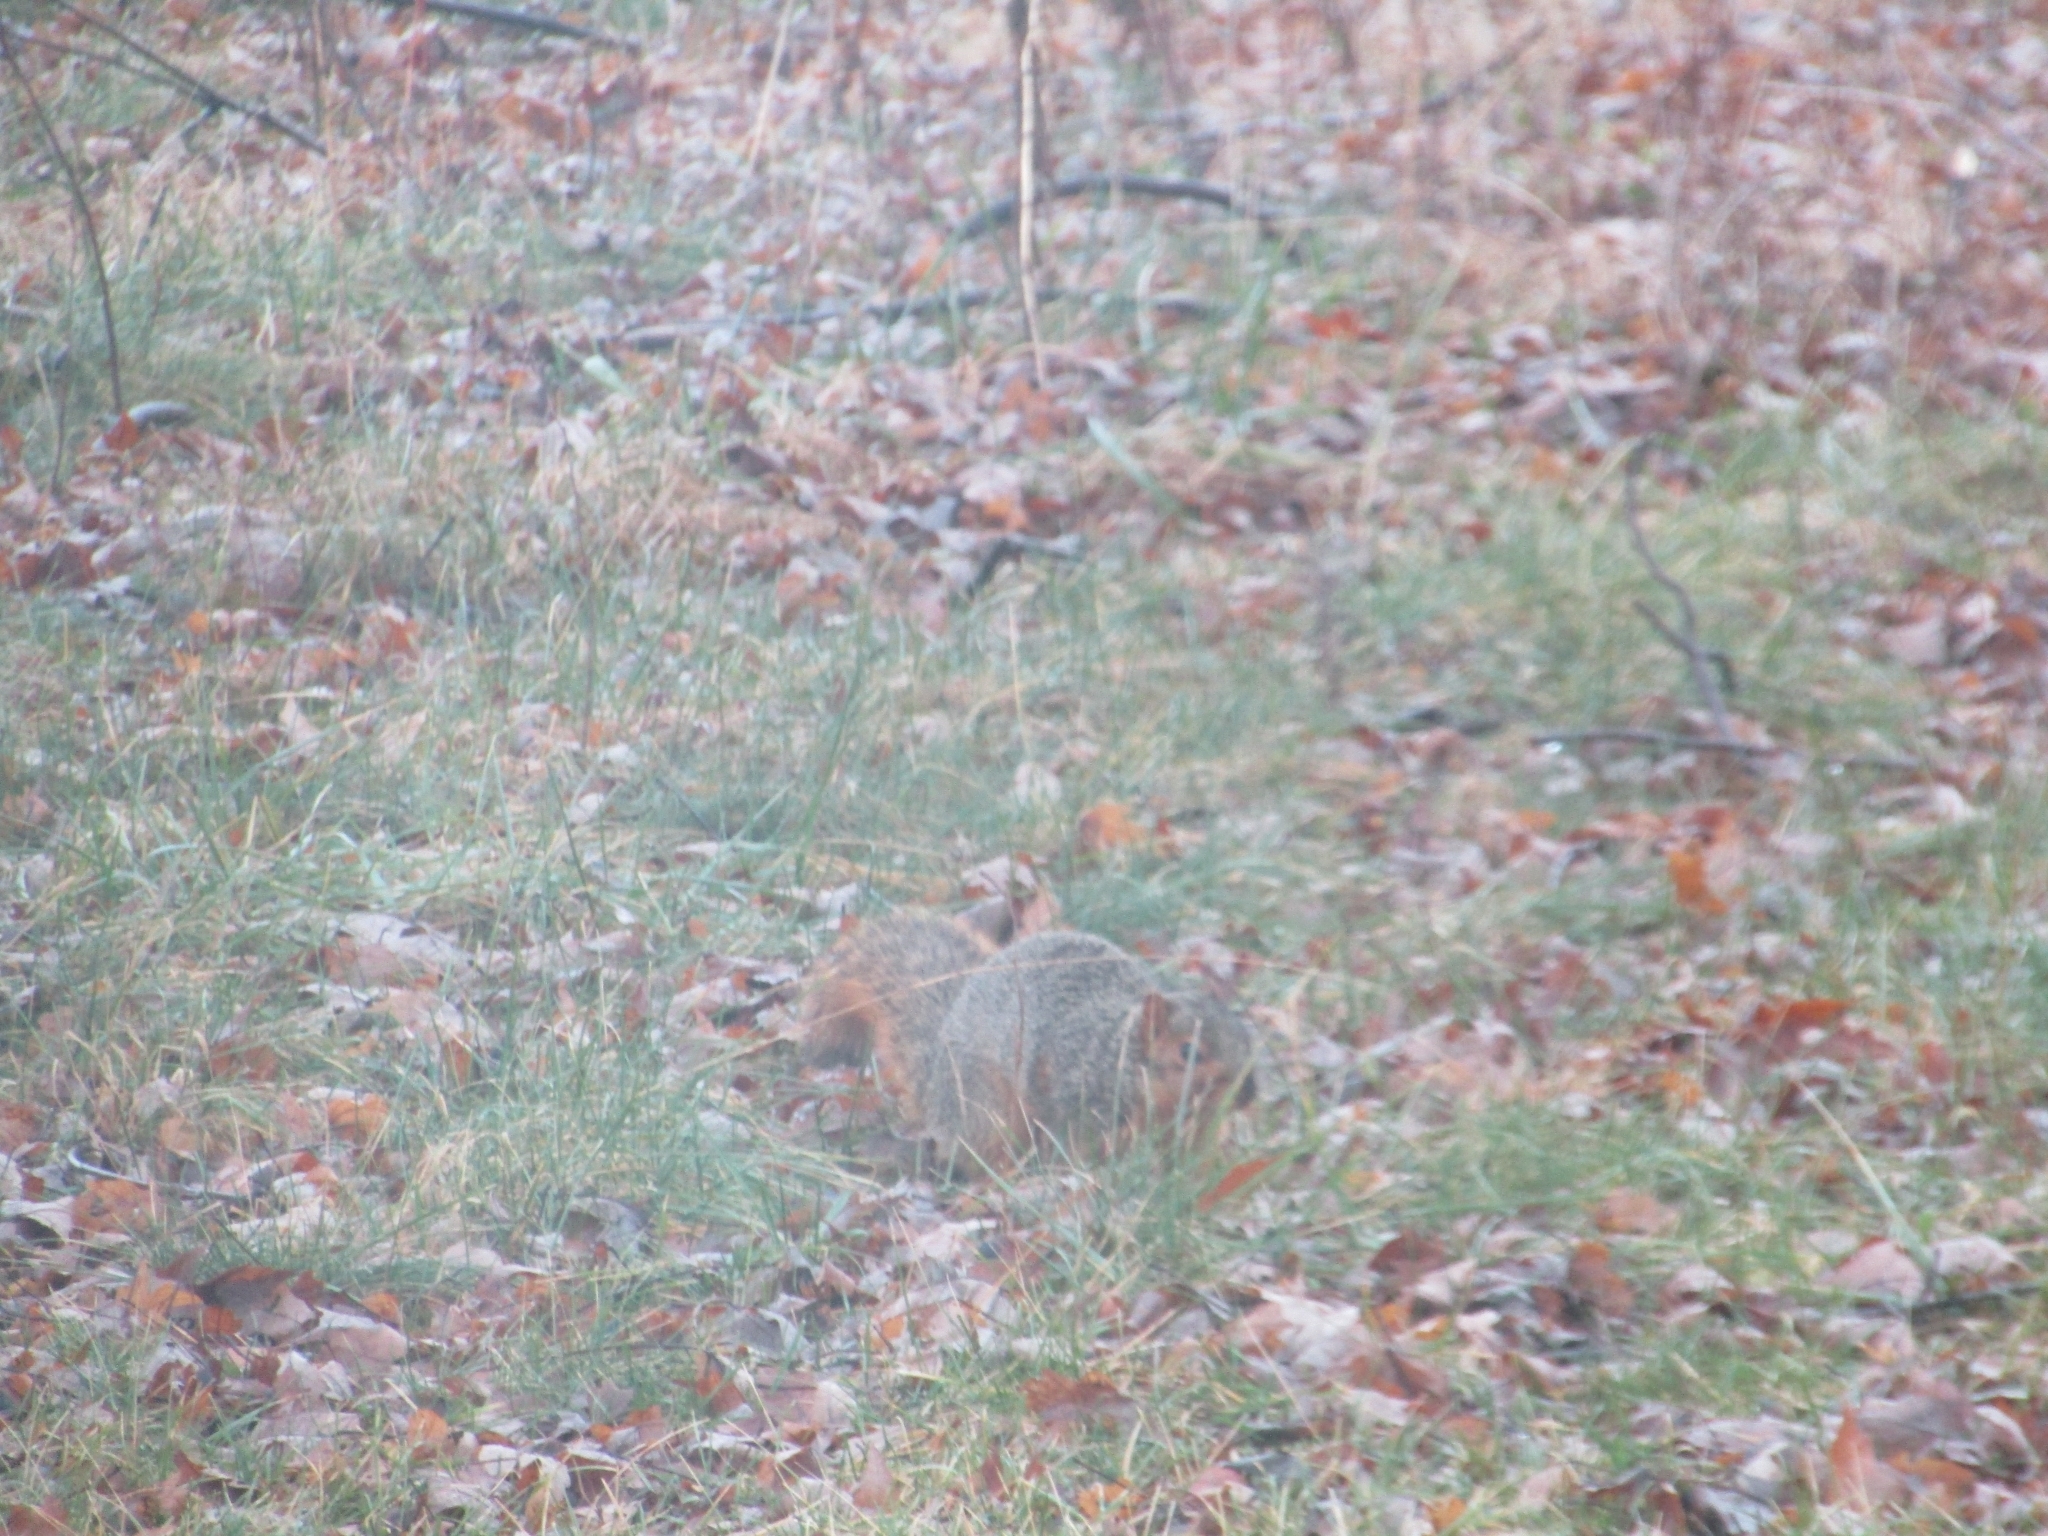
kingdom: Animalia
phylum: Chordata
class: Mammalia
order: Rodentia
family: Sciuridae
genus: Sciurus
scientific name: Sciurus niger
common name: Fox squirrel
